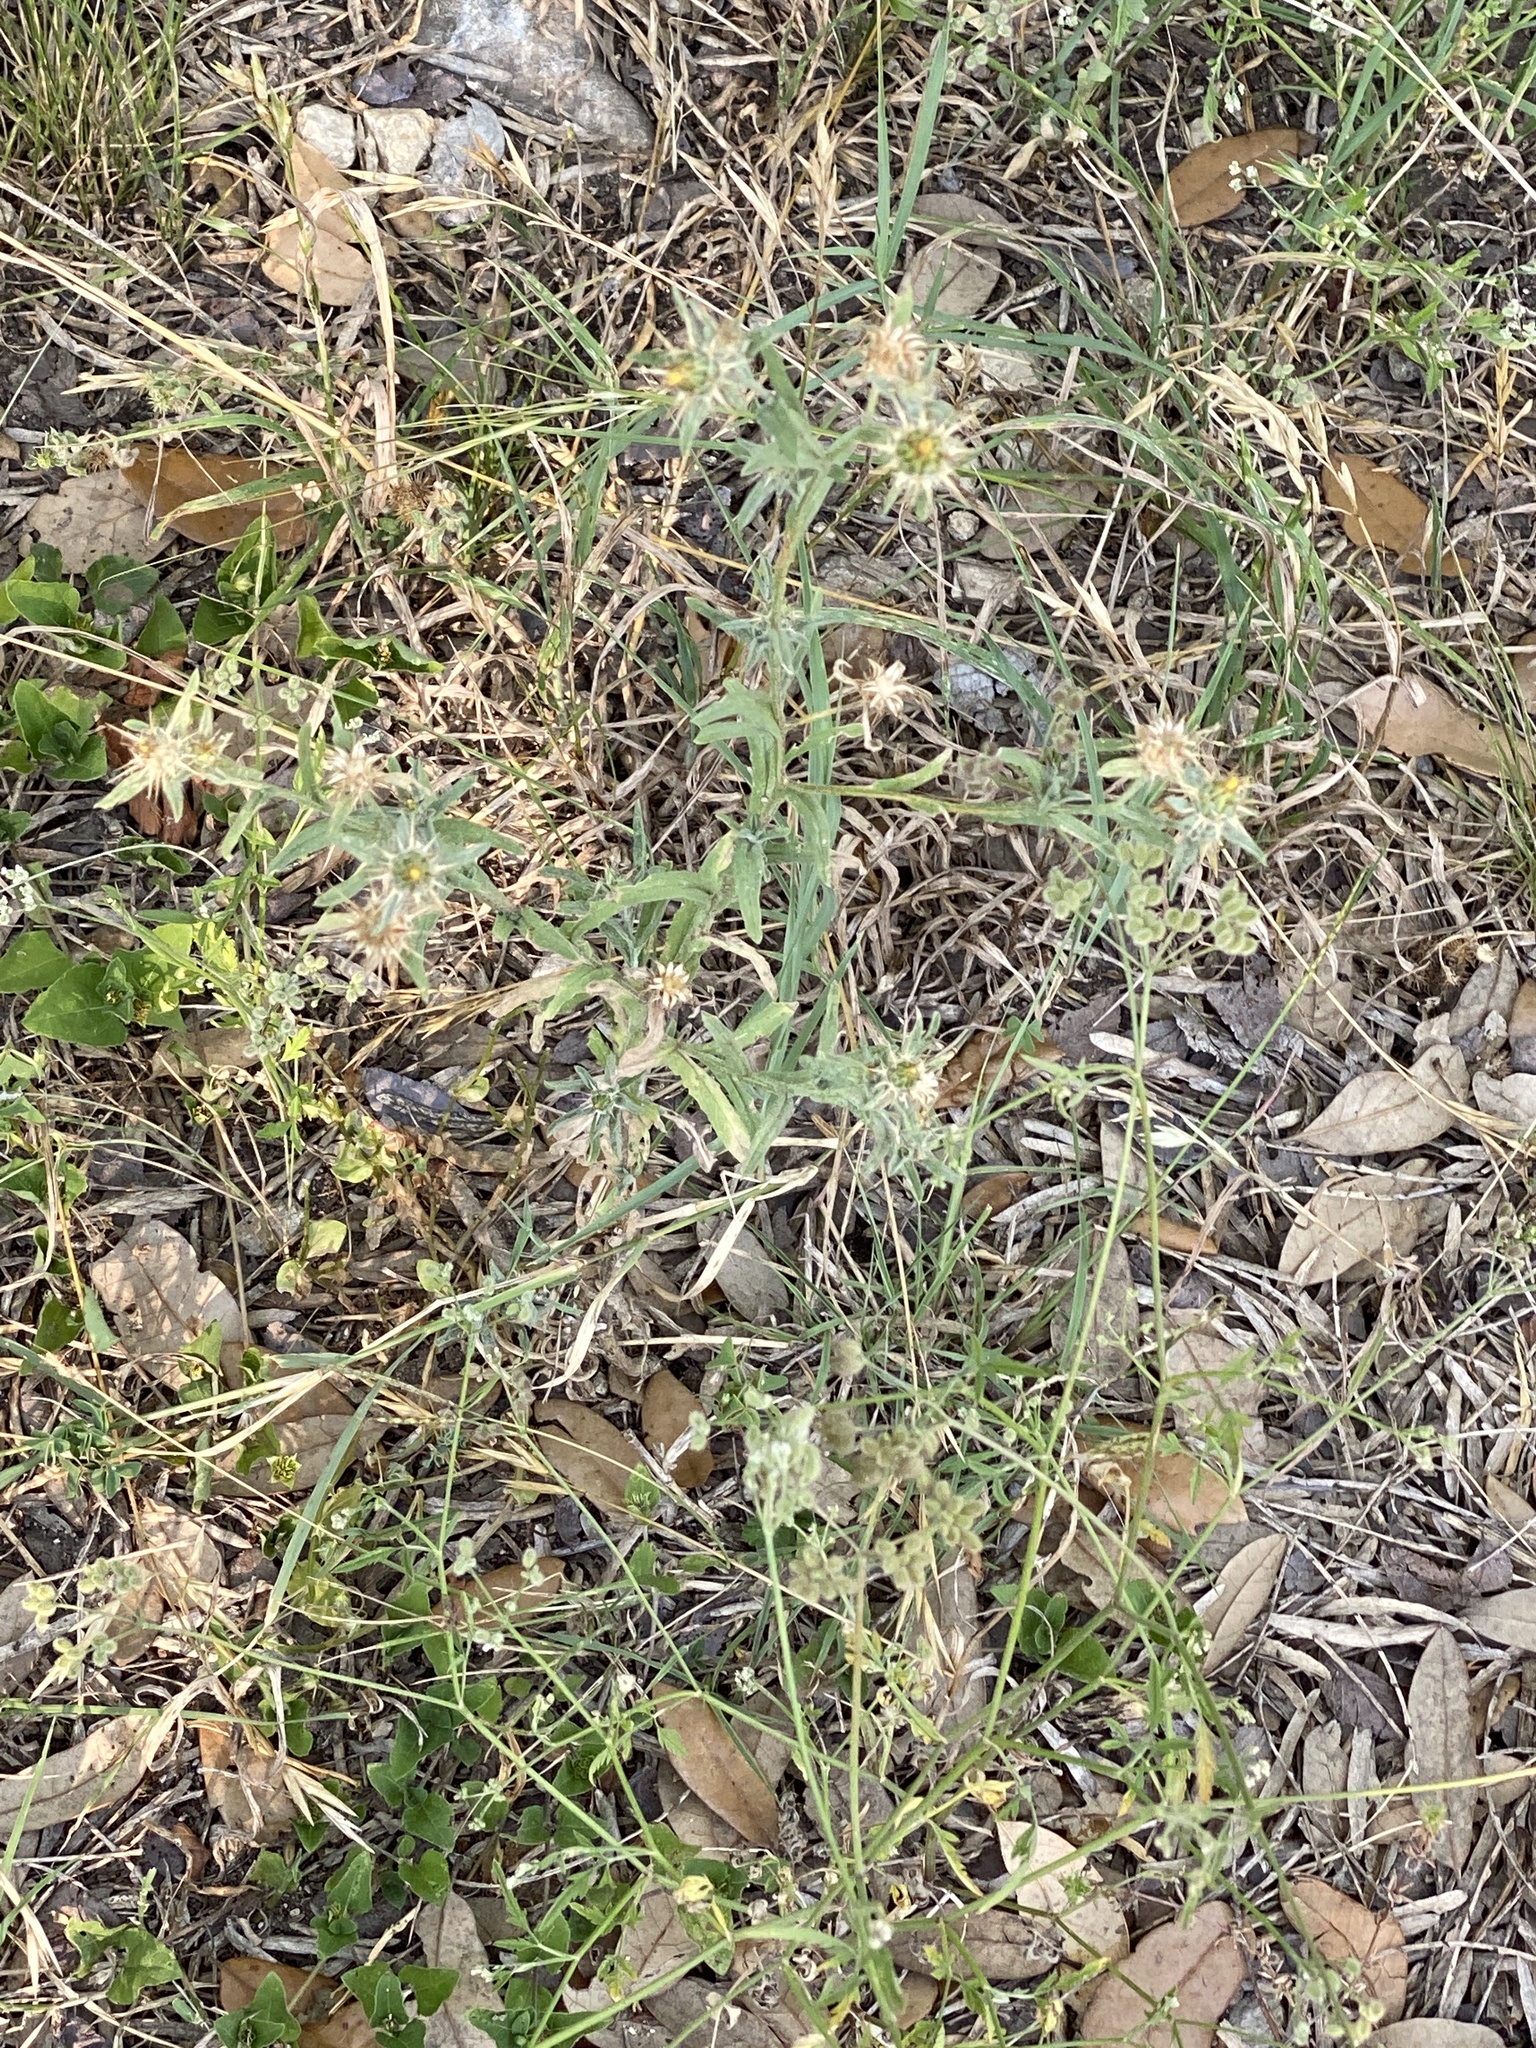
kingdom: Plantae
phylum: Tracheophyta
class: Magnoliopsida
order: Asterales
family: Asteraceae
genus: Centaurea
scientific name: Centaurea melitensis
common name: Maltese star-thistle
